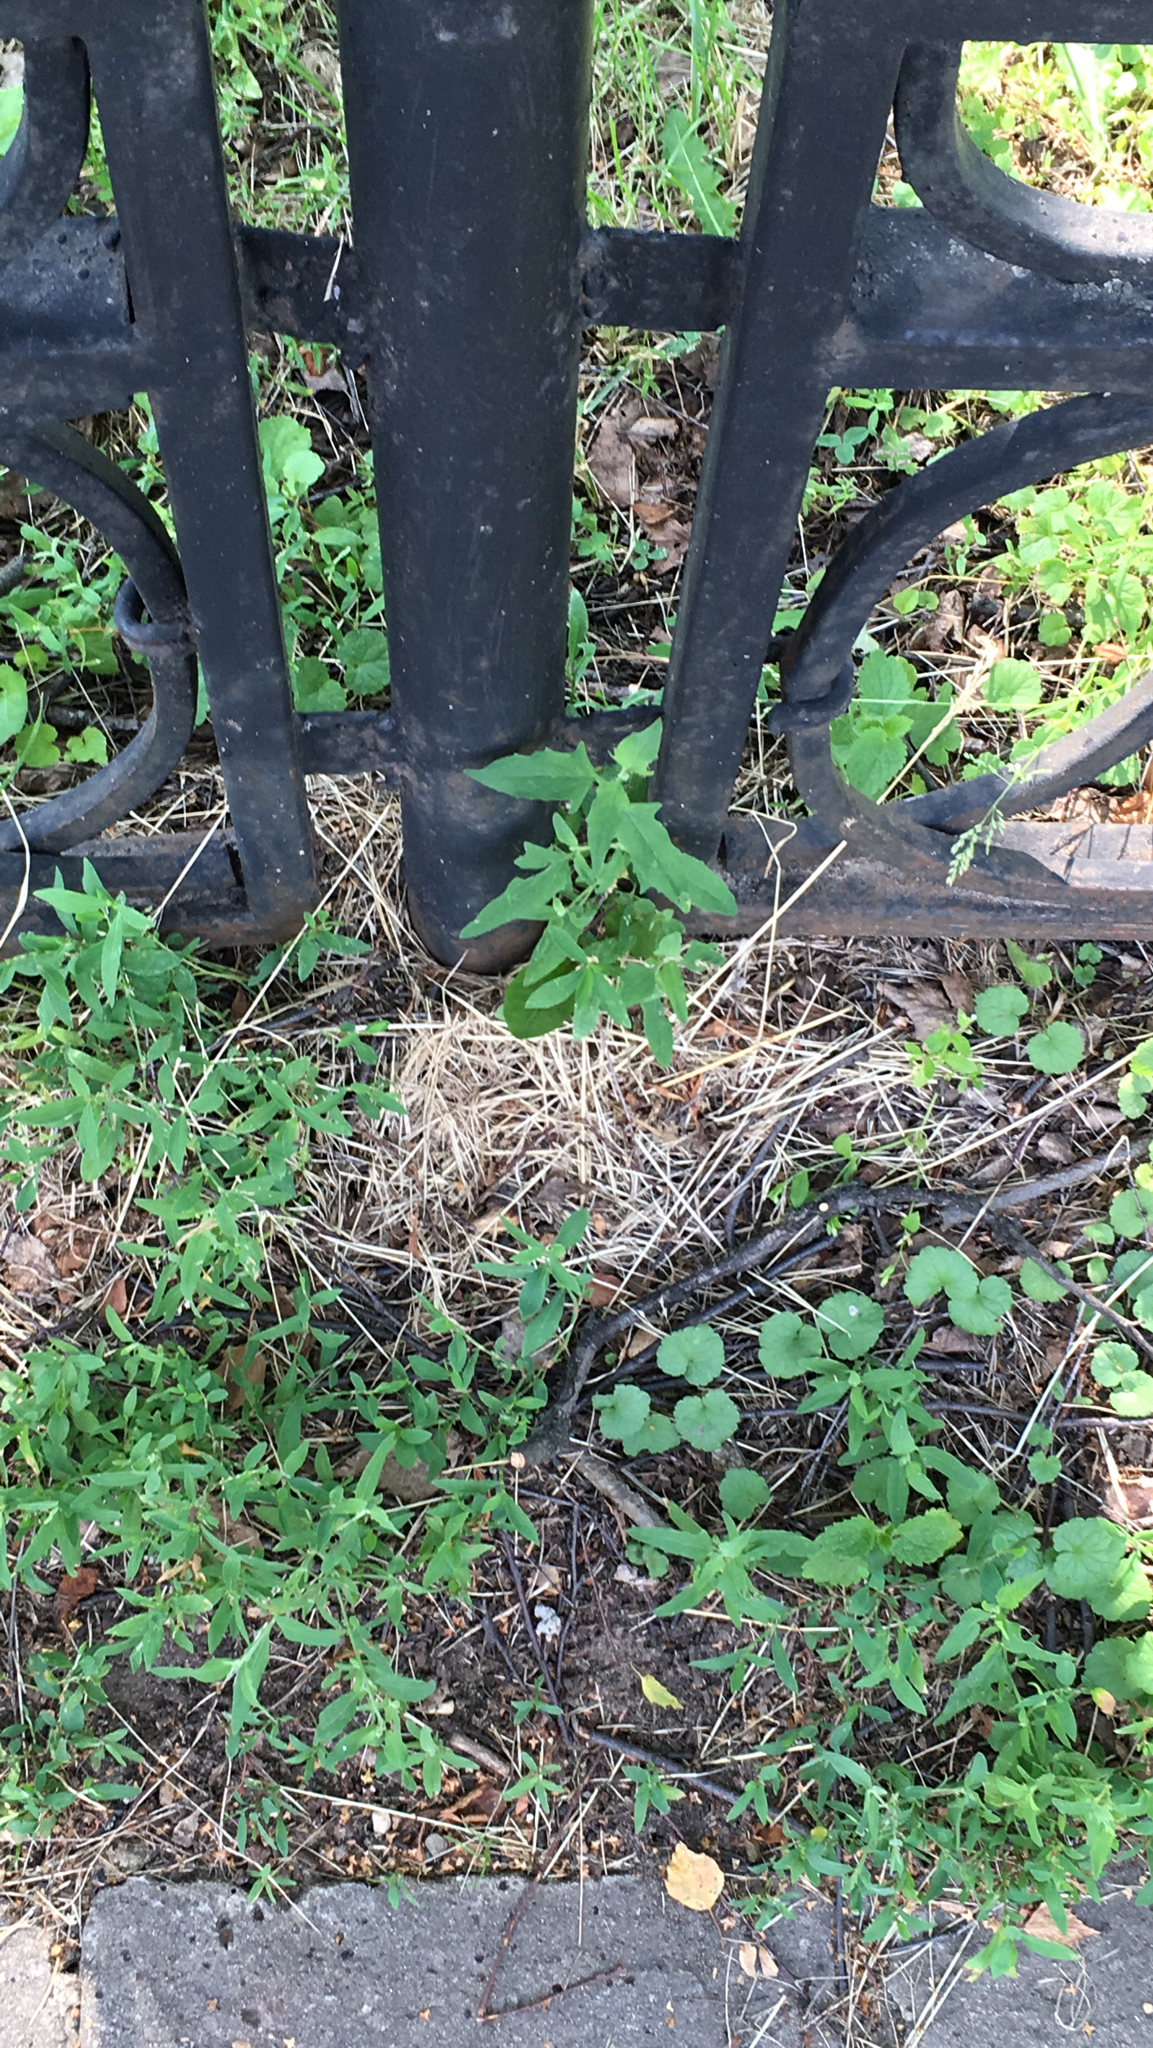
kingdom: Plantae
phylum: Tracheophyta
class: Magnoliopsida
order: Caryophyllales
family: Amaranthaceae
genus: Atriplex
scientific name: Atriplex patula
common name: Common orache
